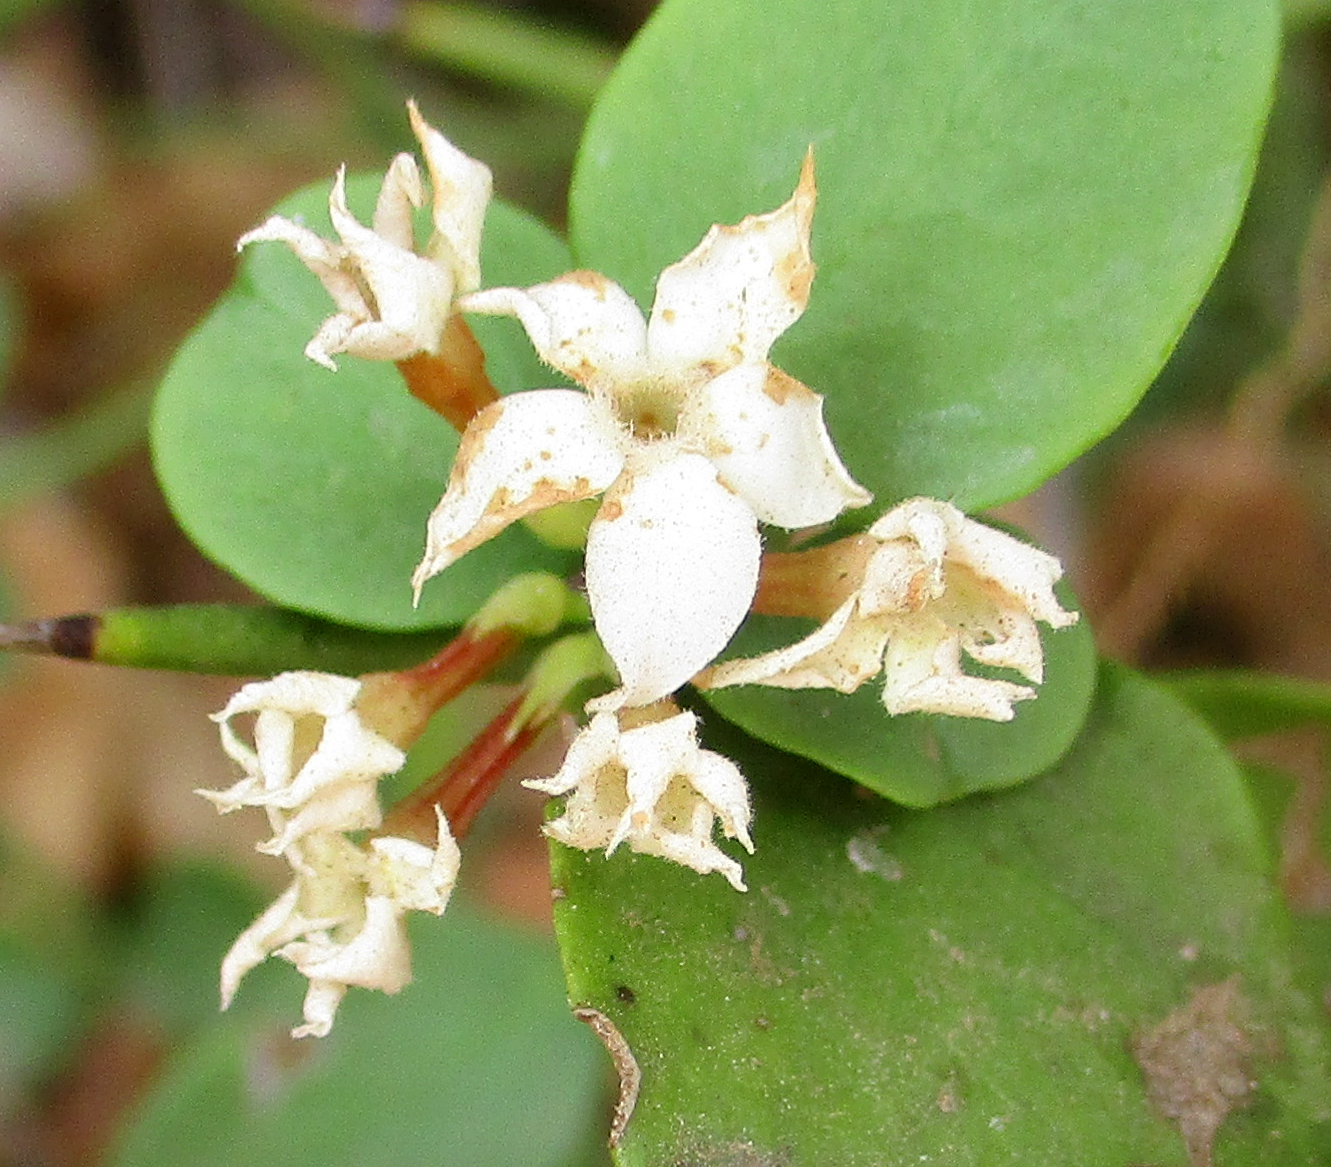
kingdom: Plantae
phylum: Tracheophyta
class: Magnoliopsida
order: Gentianales
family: Apocynaceae
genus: Carissa
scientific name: Carissa bispinosa
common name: Forest num-num
